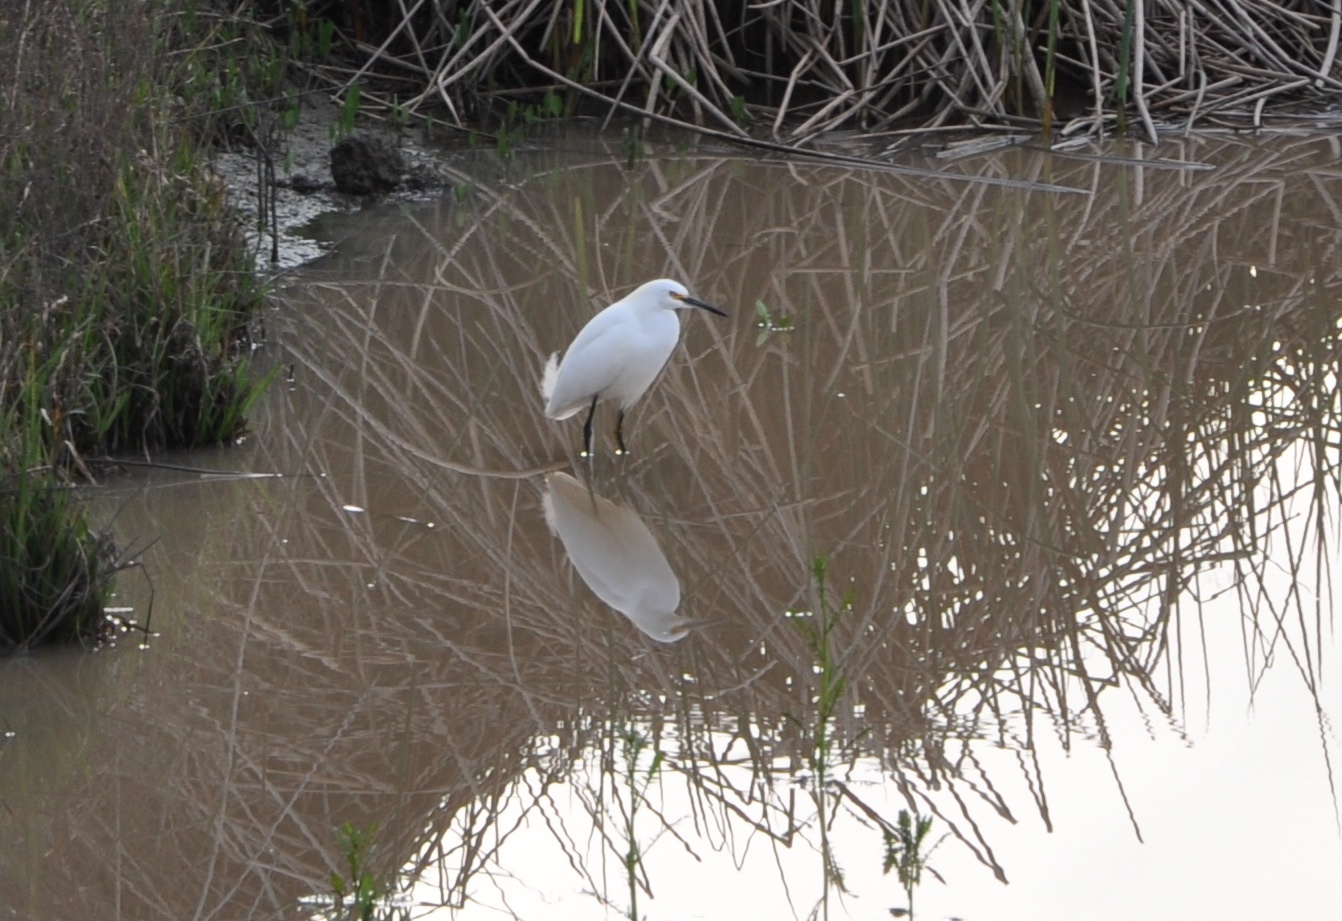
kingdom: Animalia
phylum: Chordata
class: Aves
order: Pelecaniformes
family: Ardeidae
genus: Egretta
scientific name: Egretta thula
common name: Snowy egret
